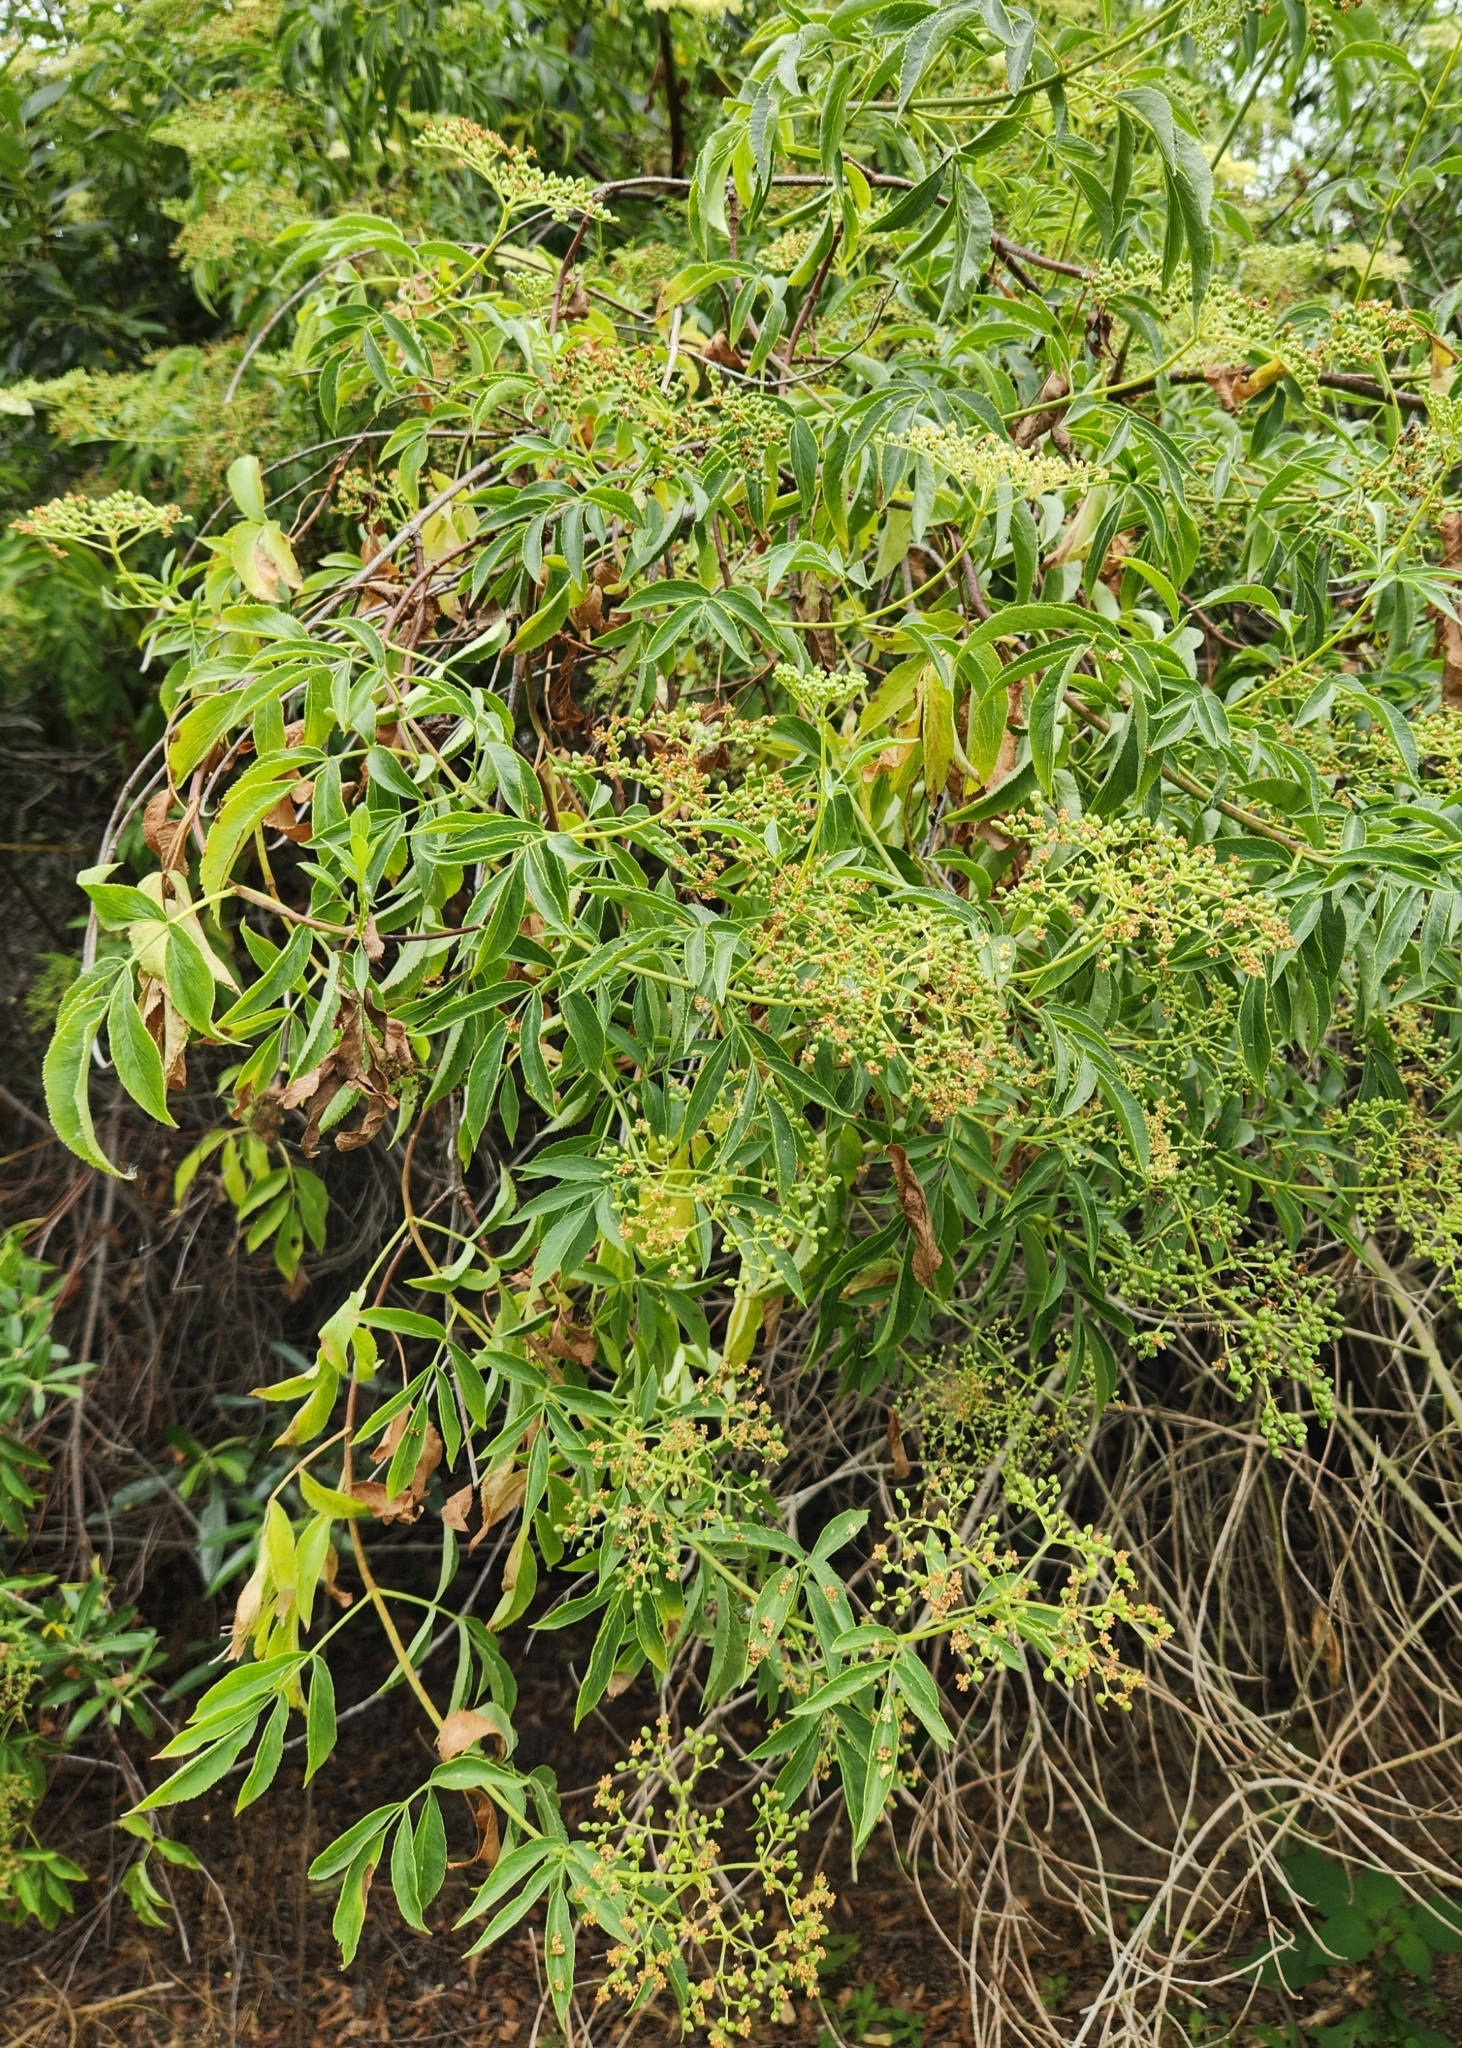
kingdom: Plantae
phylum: Tracheophyta
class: Magnoliopsida
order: Dipsacales
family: Viburnaceae
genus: Sambucus
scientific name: Sambucus cerulea
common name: Blue elder
